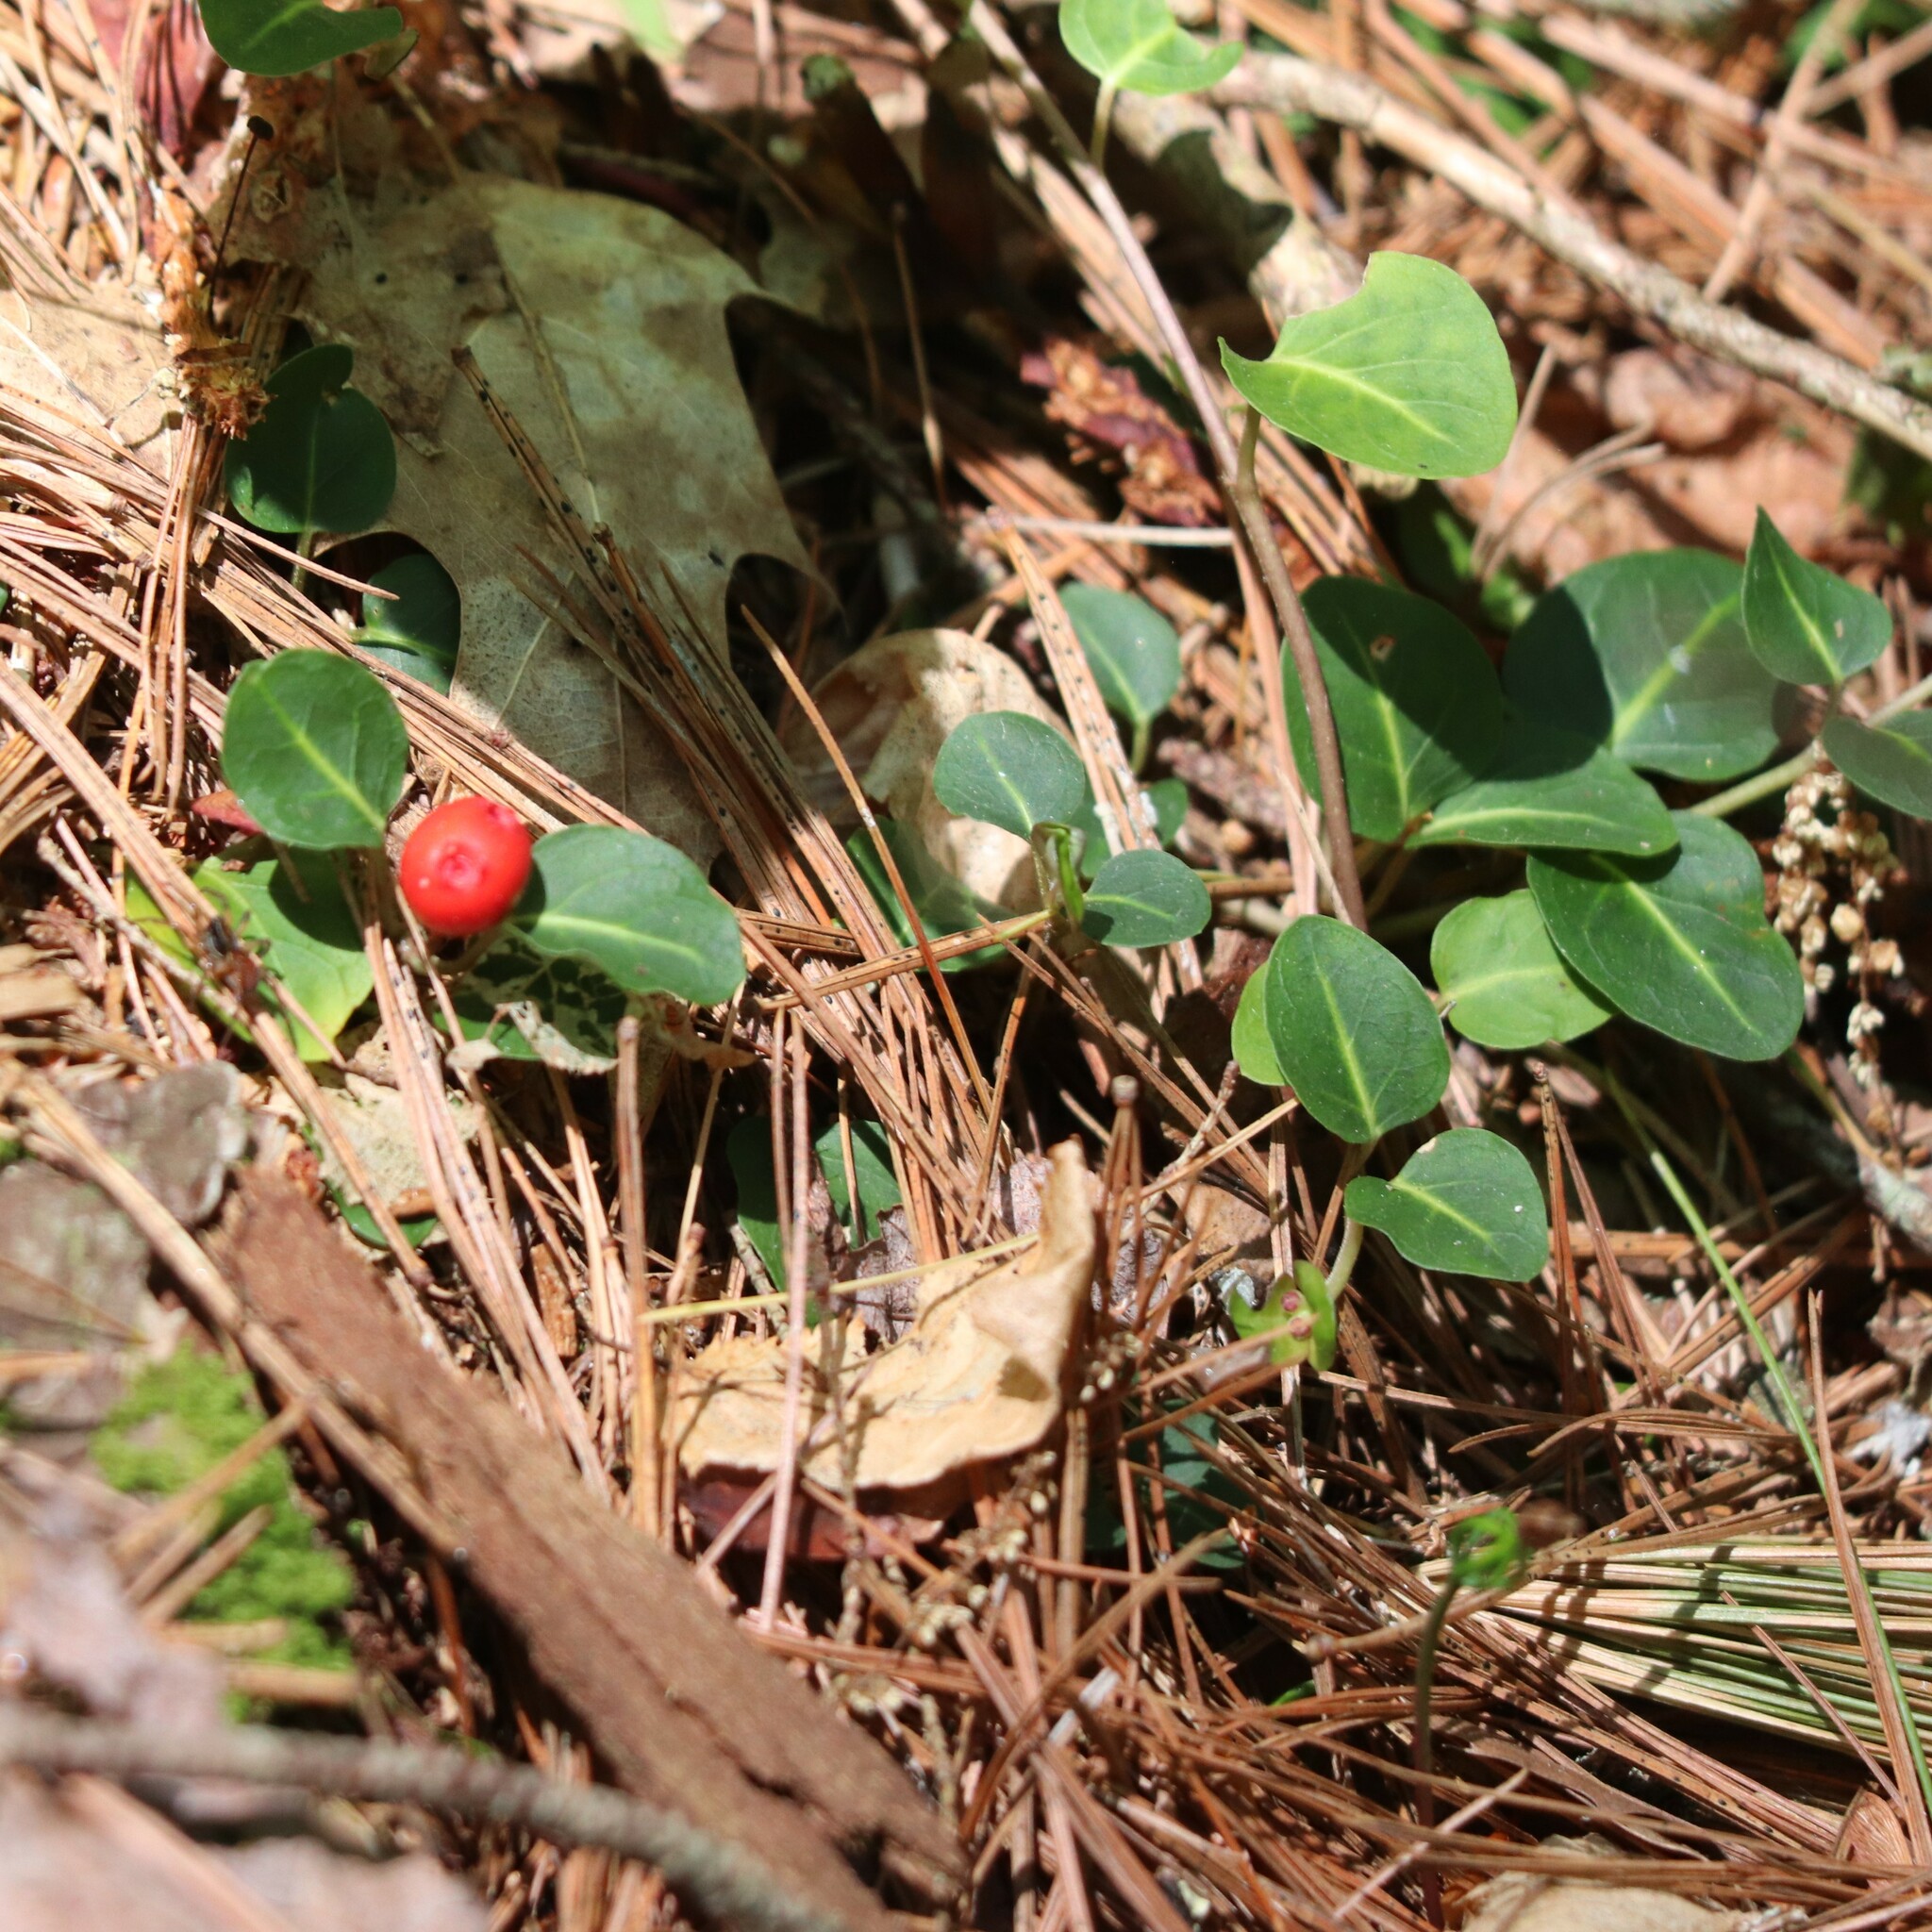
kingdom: Plantae
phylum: Tracheophyta
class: Magnoliopsida
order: Gentianales
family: Rubiaceae
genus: Mitchella
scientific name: Mitchella repens
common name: Partridge-berry
